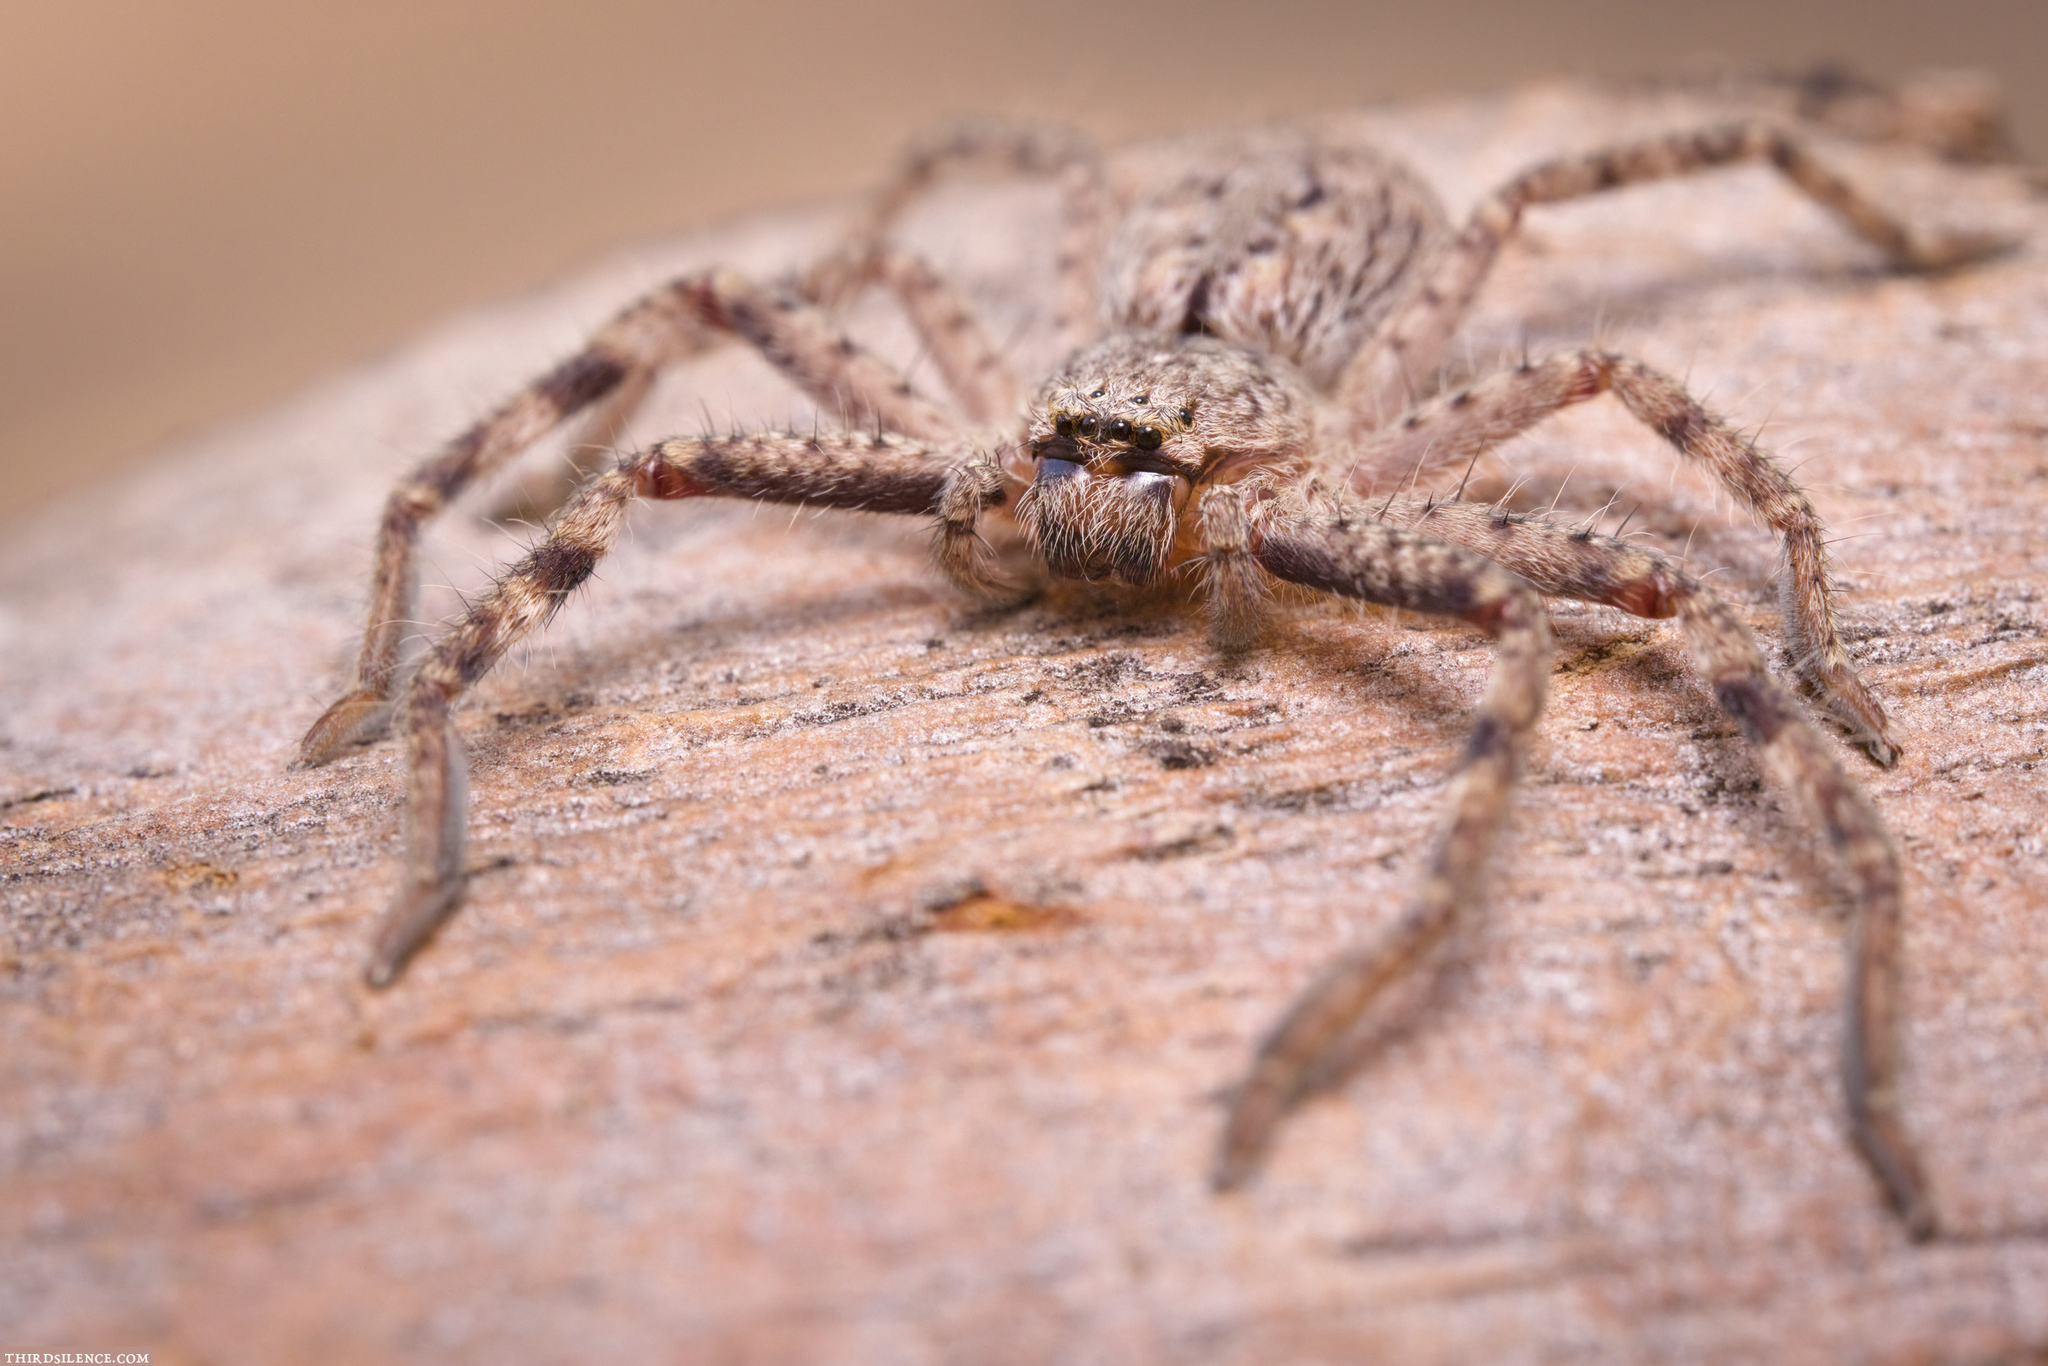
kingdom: Animalia
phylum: Arthropoda
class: Arachnida
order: Araneae
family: Sparassidae
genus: Isopedella
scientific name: Isopedella frenchi
